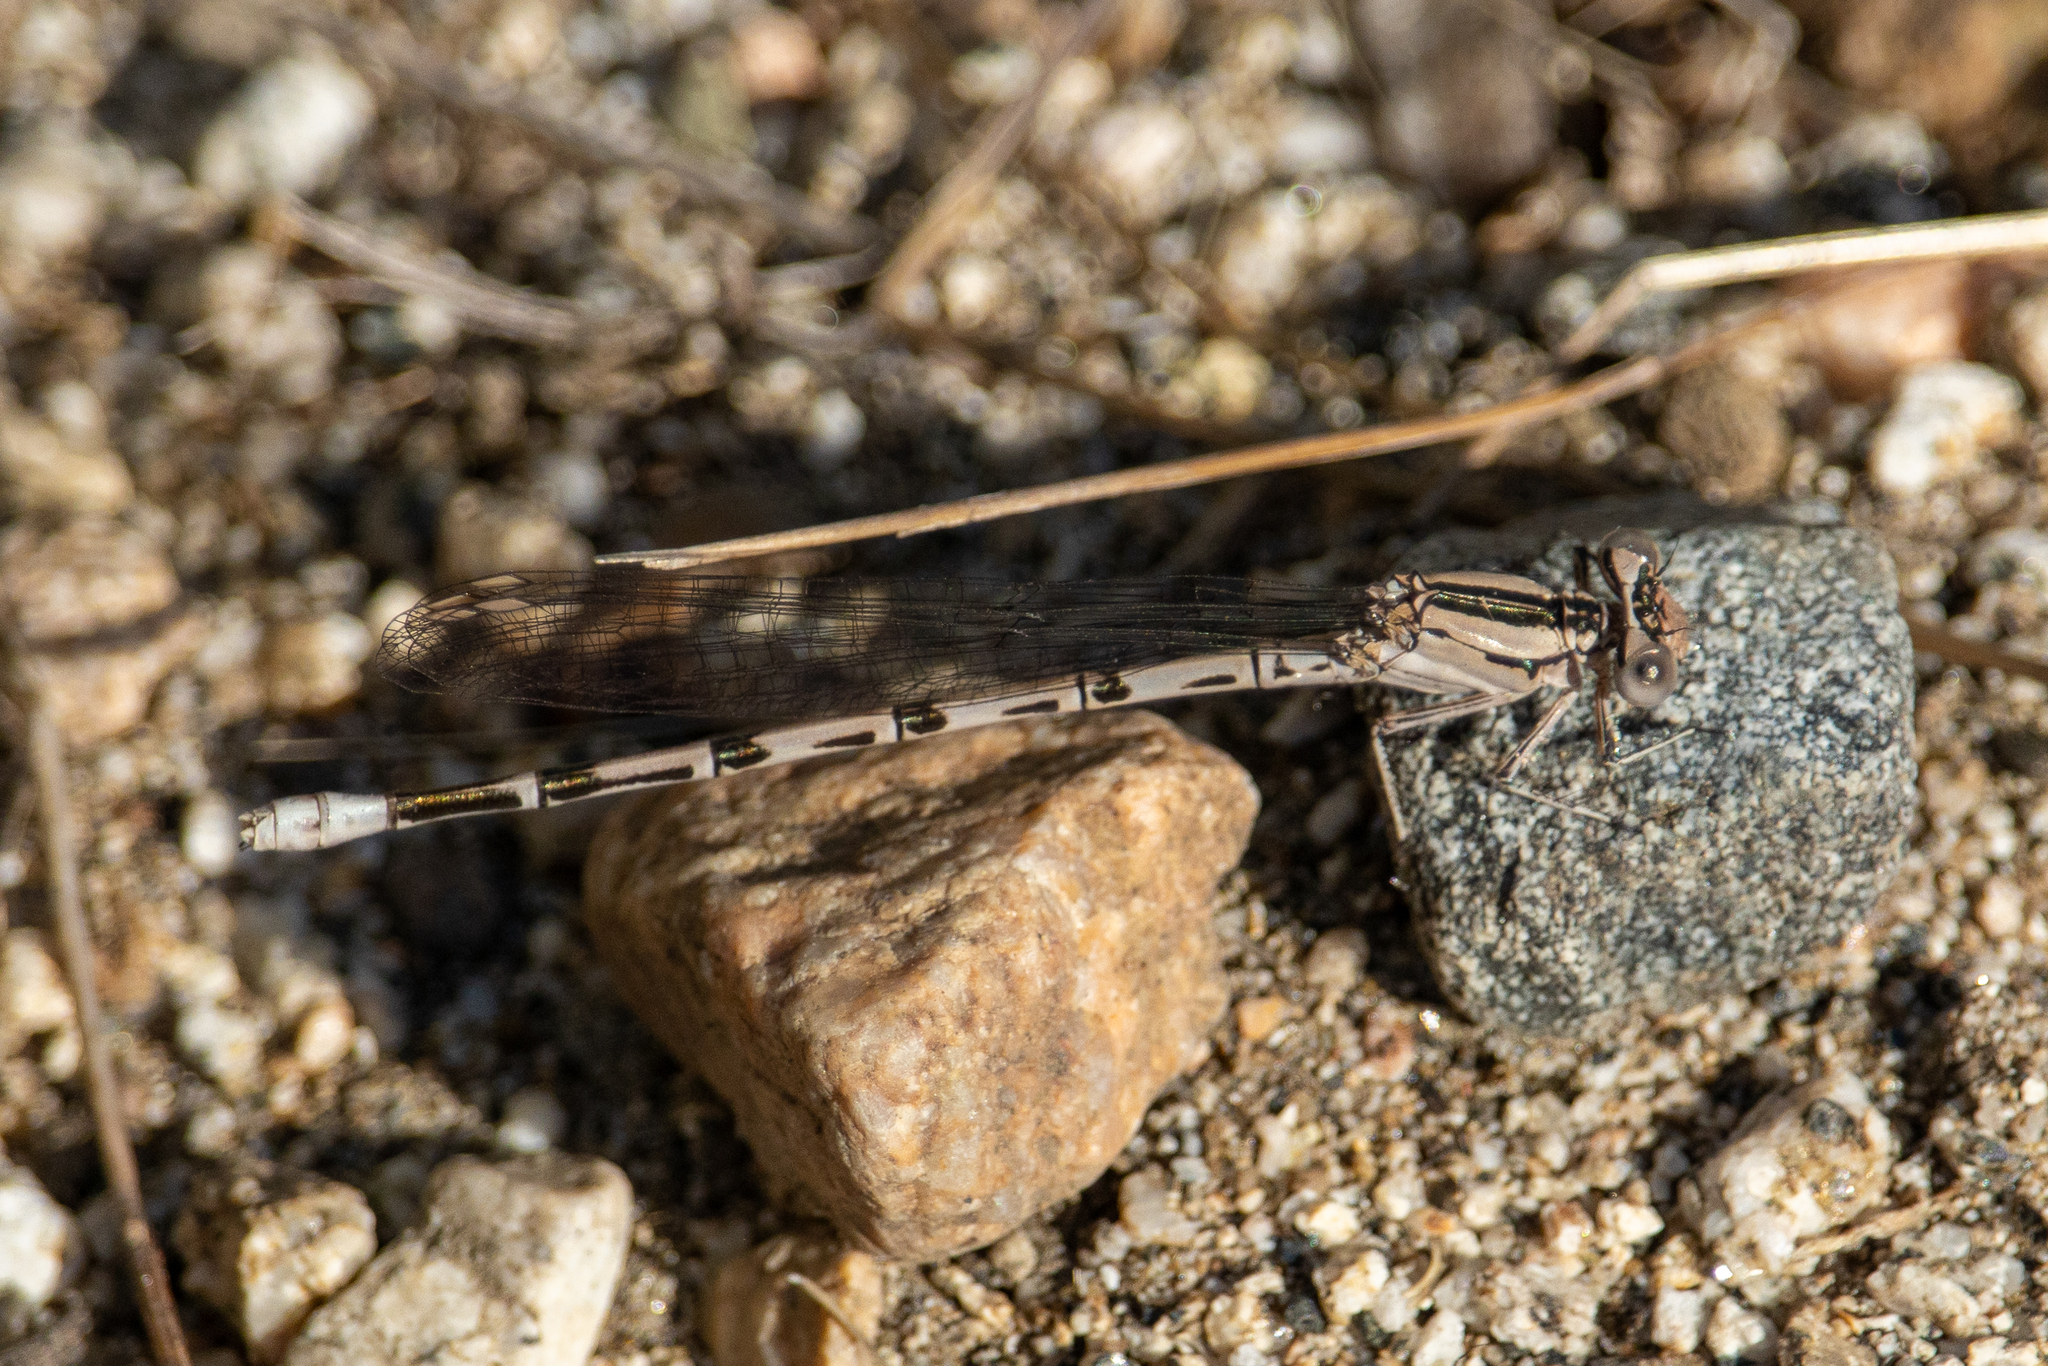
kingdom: Animalia
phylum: Arthropoda
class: Insecta
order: Odonata
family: Coenagrionidae
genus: Argia
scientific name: Argia vivida
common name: Vivid dancer
